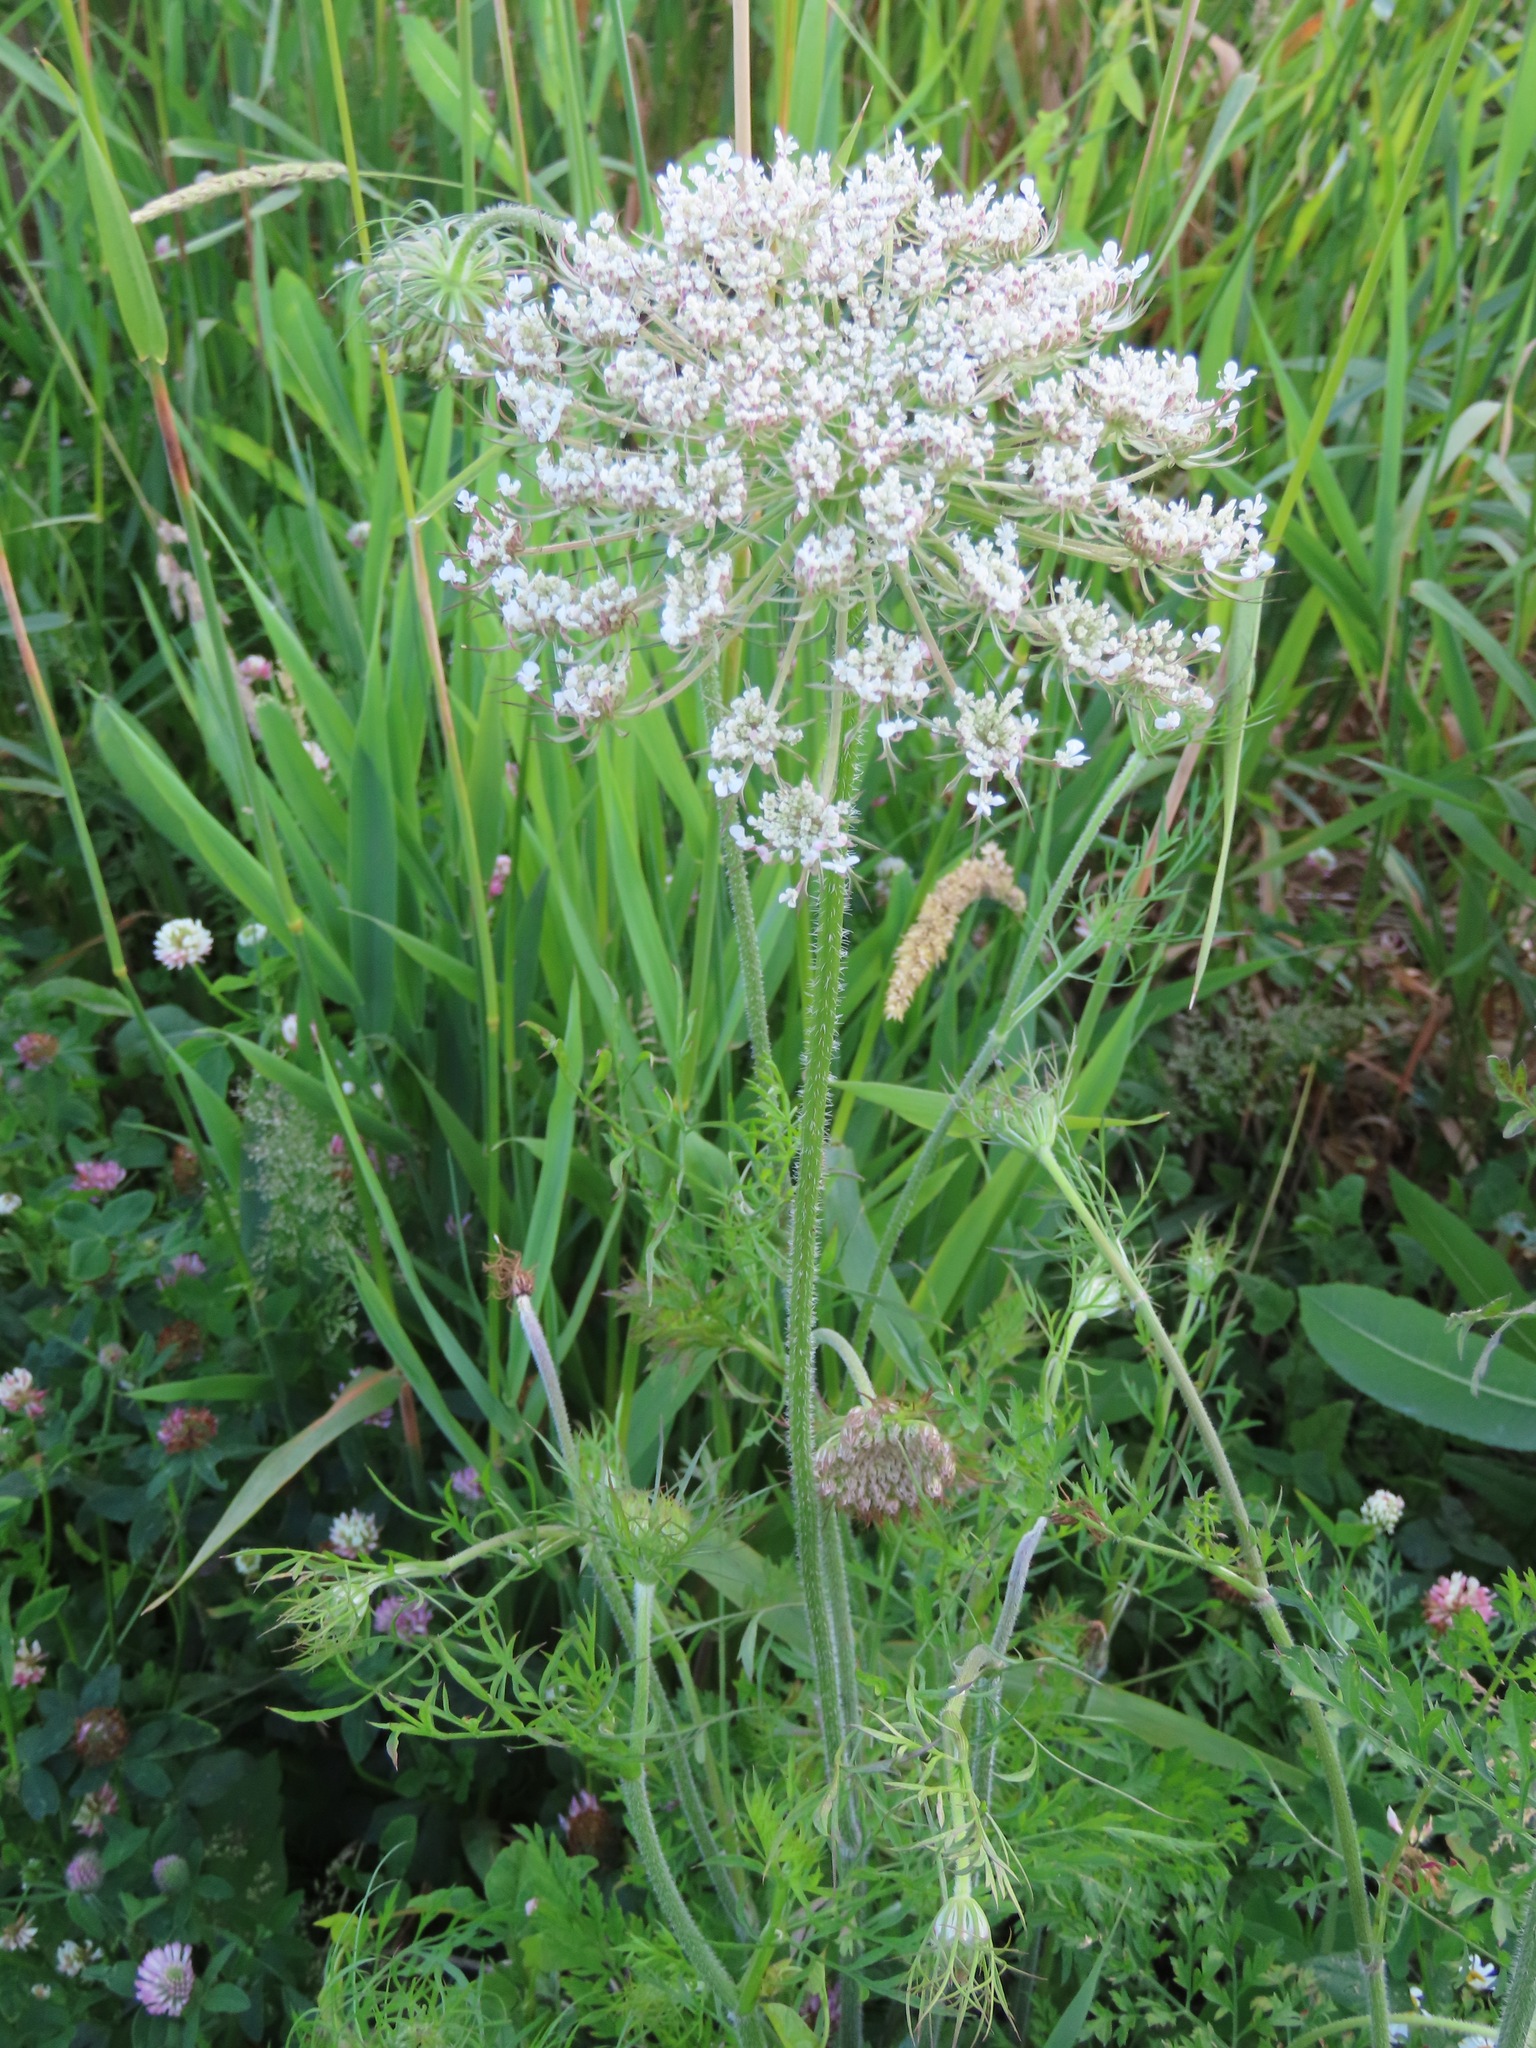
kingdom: Plantae
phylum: Tracheophyta
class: Magnoliopsida
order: Apiales
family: Apiaceae
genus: Daucus
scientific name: Daucus carota
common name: Wild carrot
